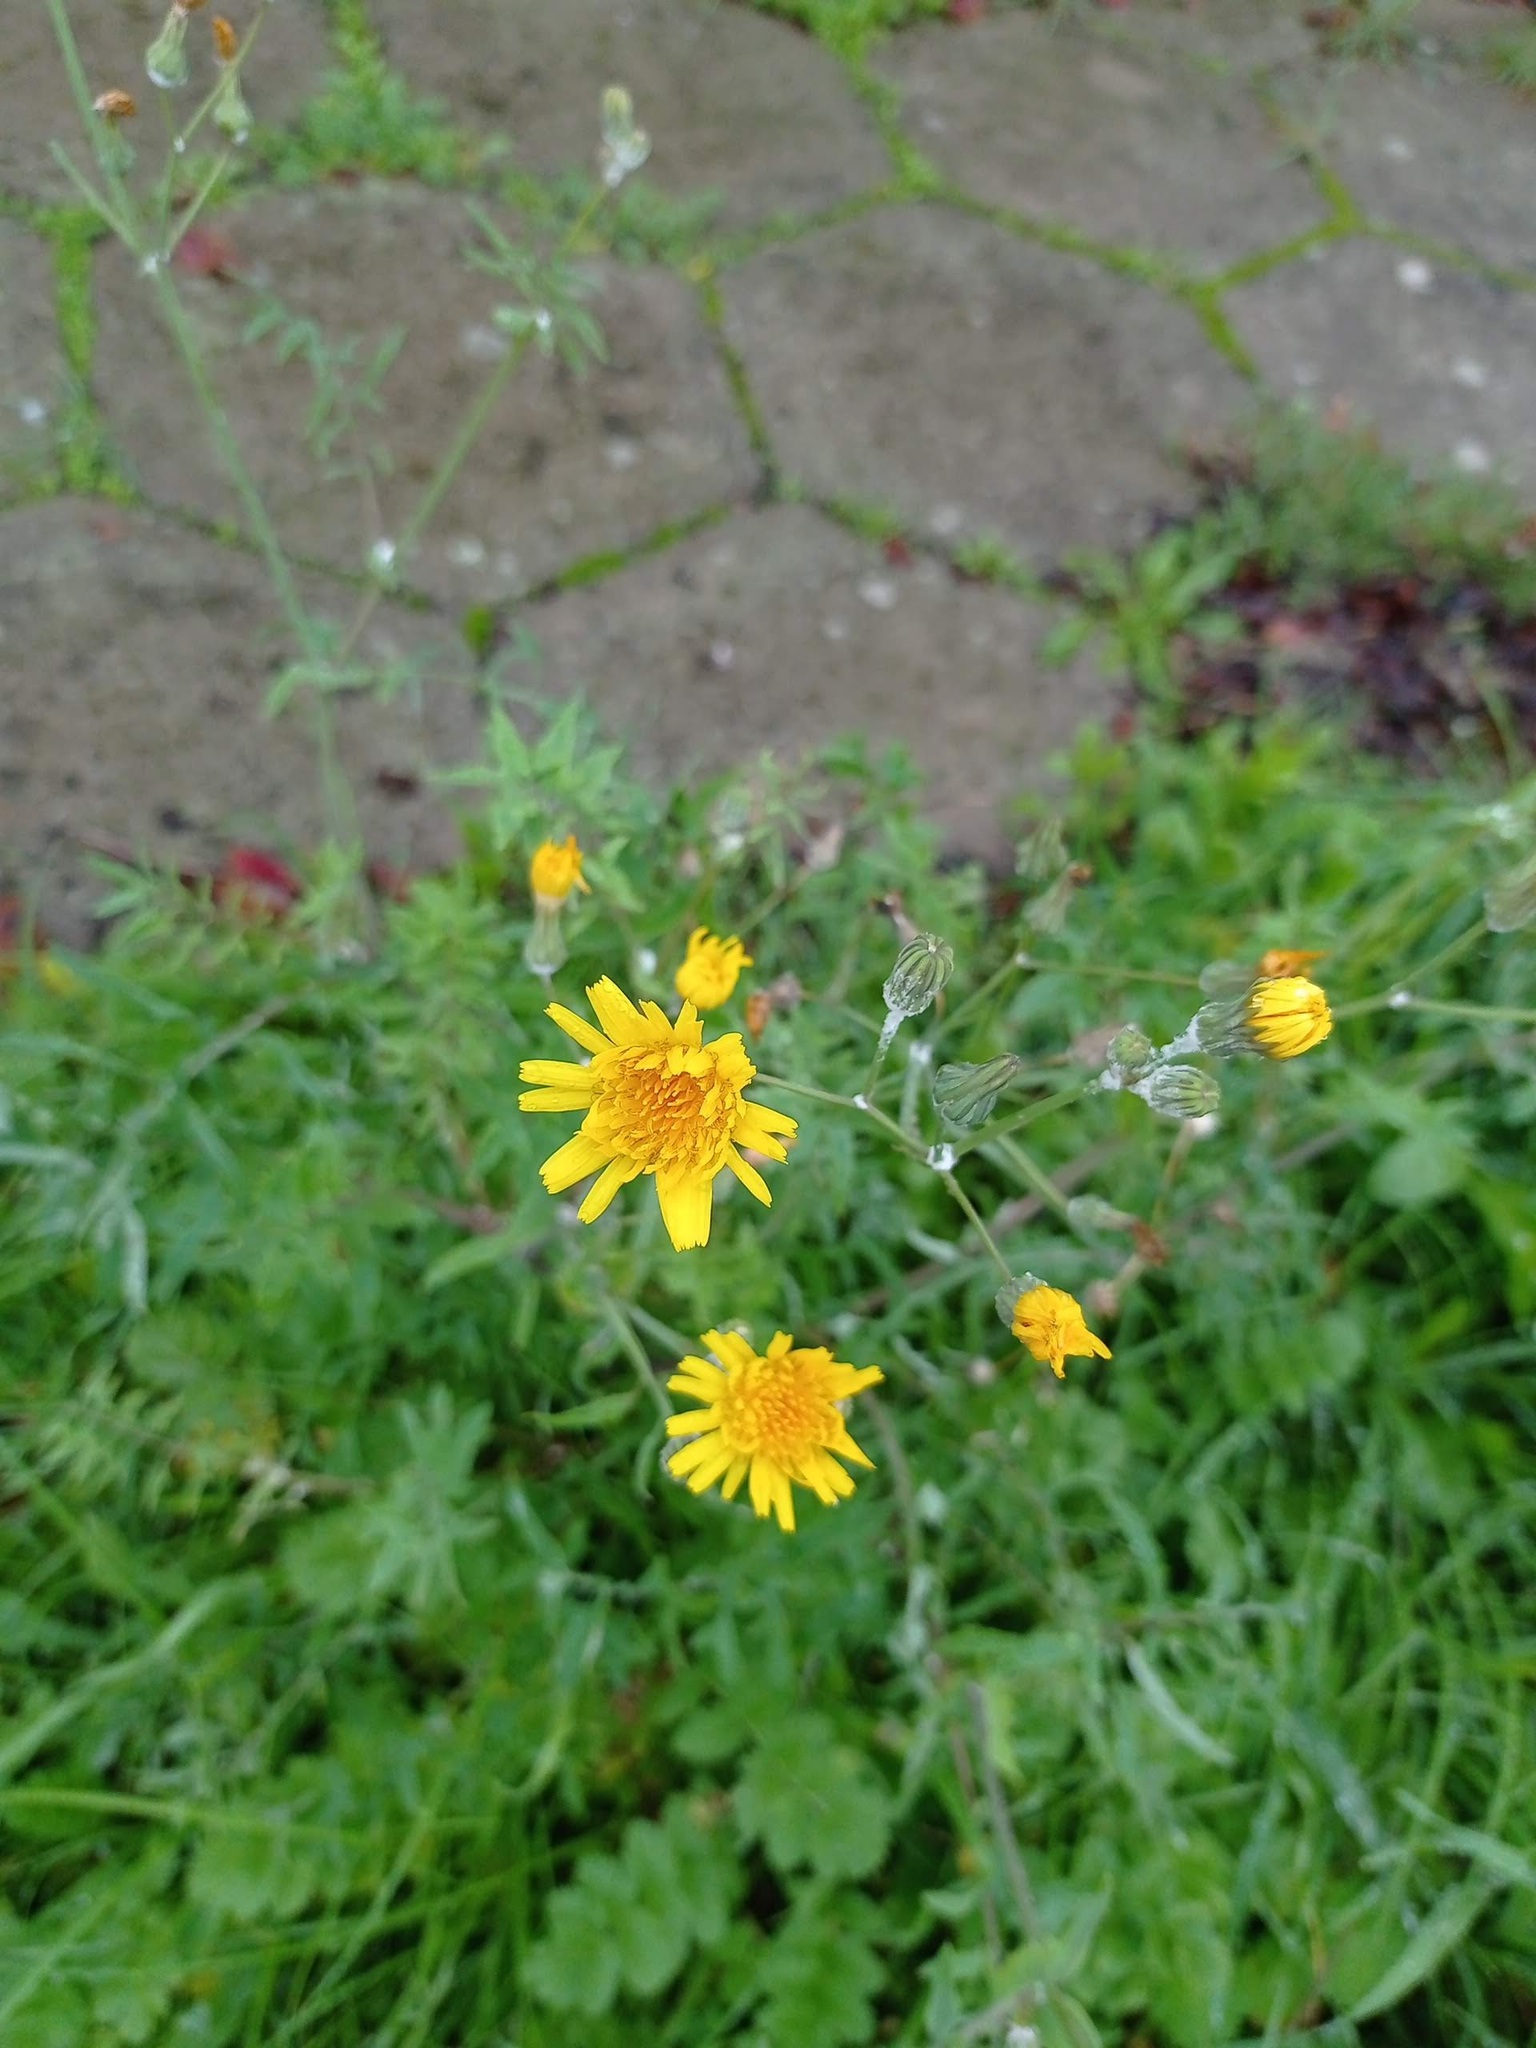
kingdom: Plantae
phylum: Tracheophyta
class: Magnoliopsida
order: Asterales
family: Asteraceae
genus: Sonchus
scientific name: Sonchus tenerrimus
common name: Clammy sowthistle
